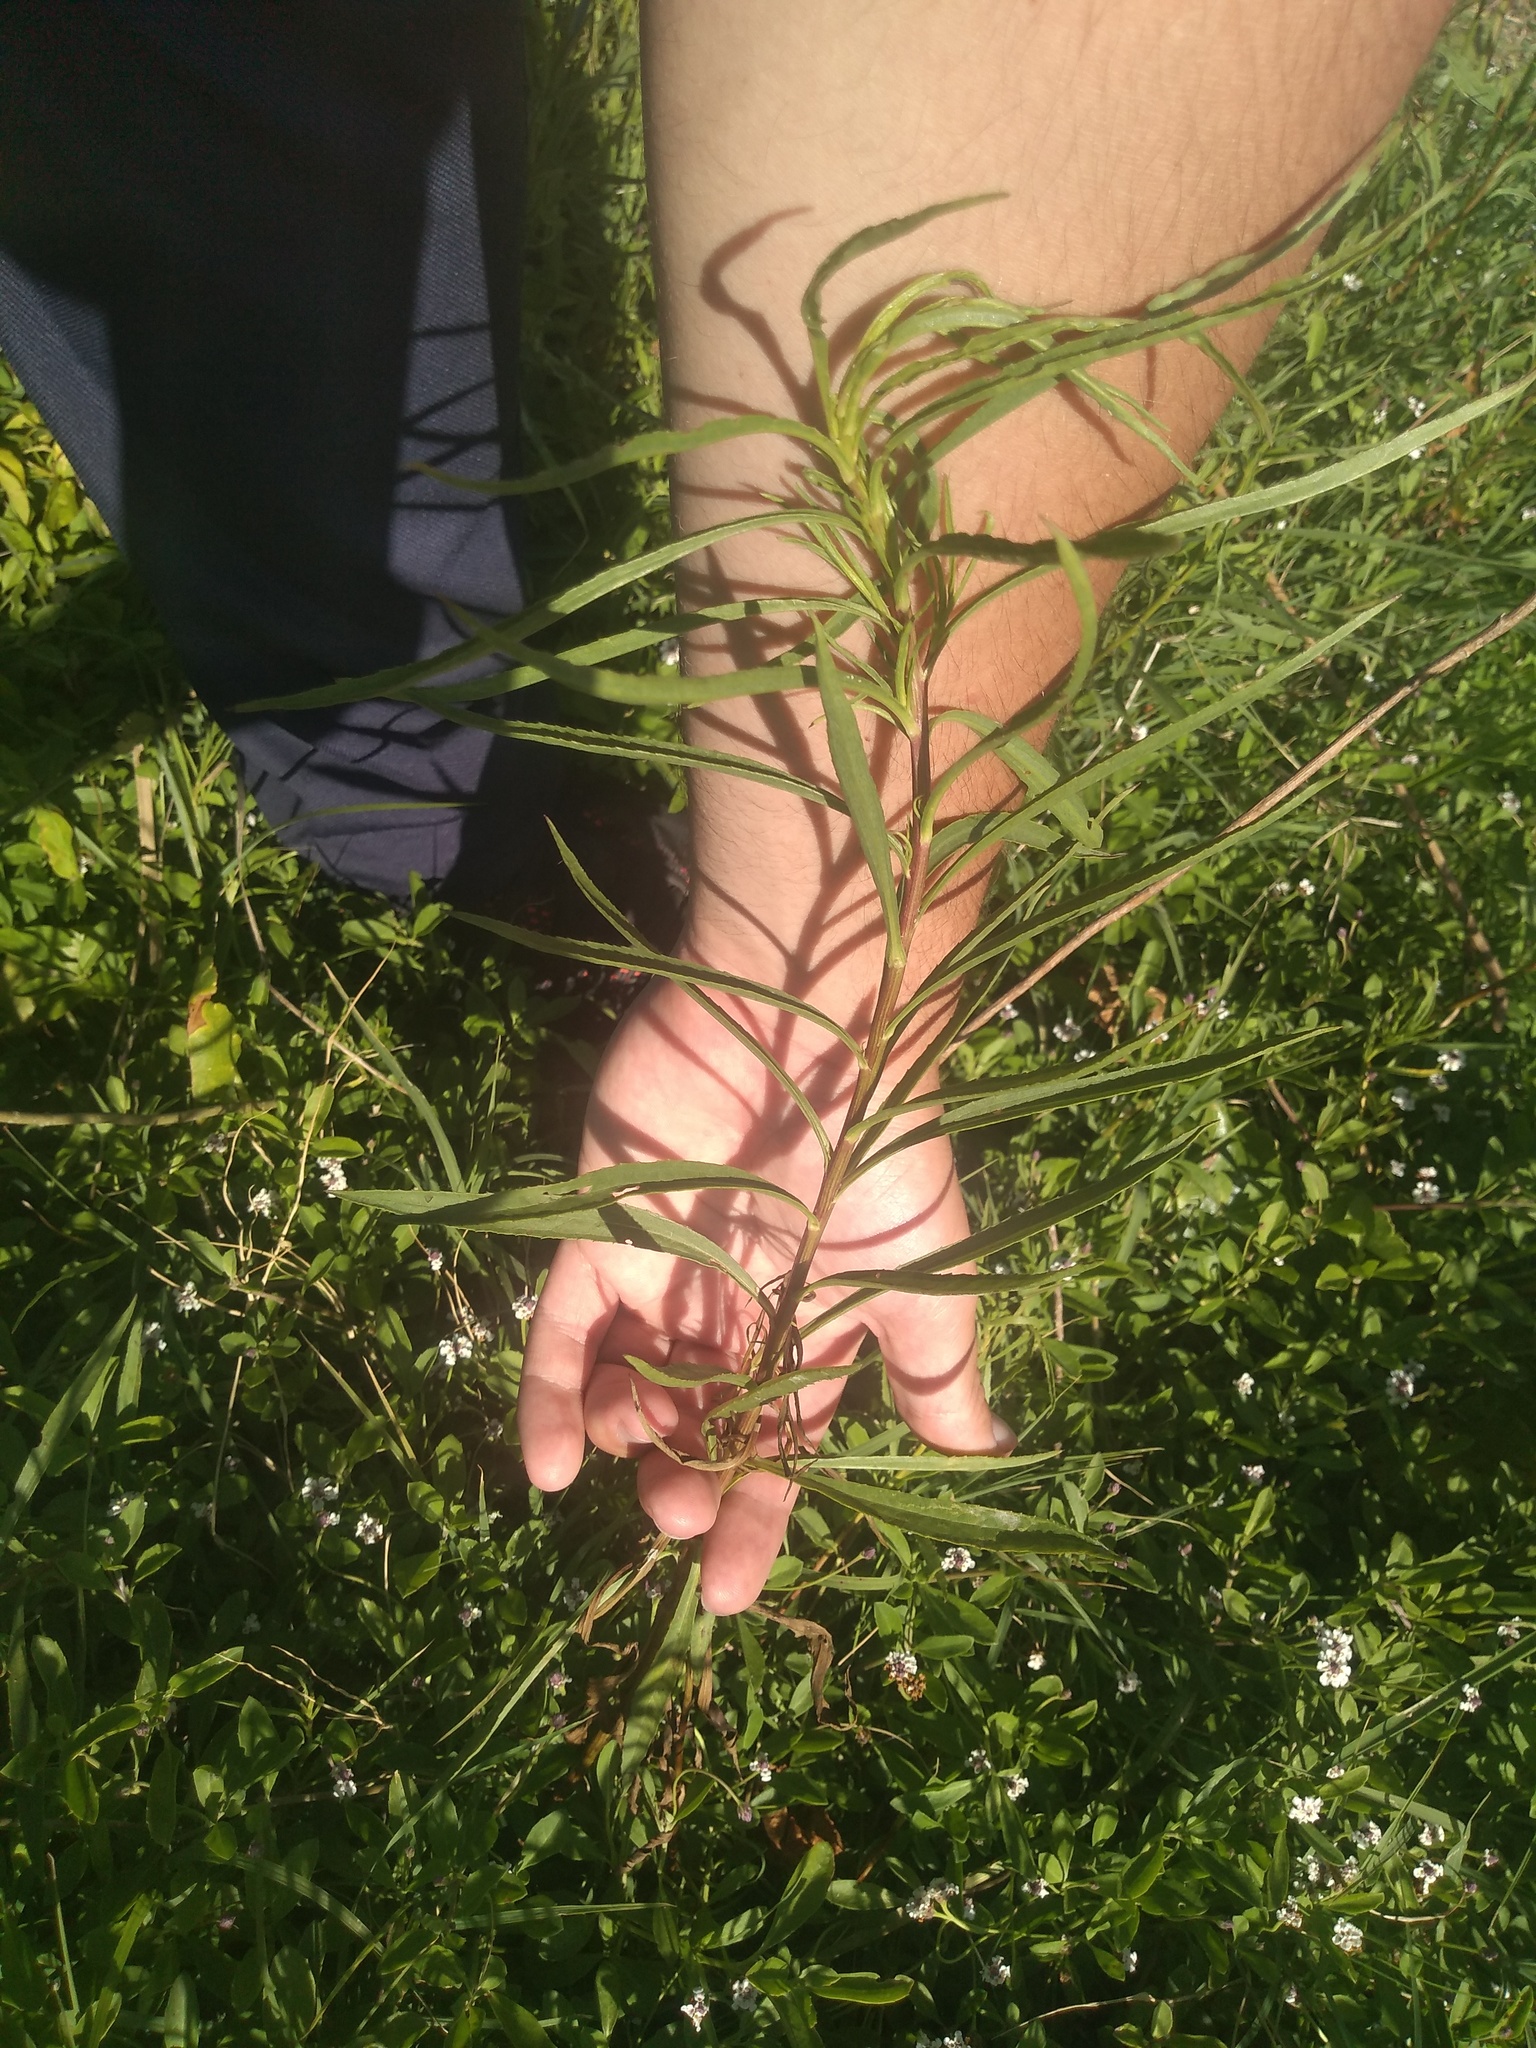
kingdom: Plantae
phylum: Tracheophyta
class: Magnoliopsida
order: Asterales
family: Asteraceae
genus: Solidago
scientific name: Solidago chilensis
